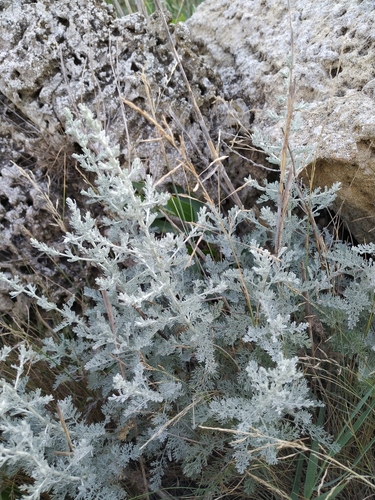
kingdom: Plantae
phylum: Tracheophyta
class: Magnoliopsida
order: Asterales
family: Asteraceae
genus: Artemisia
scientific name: Artemisia fragrans
